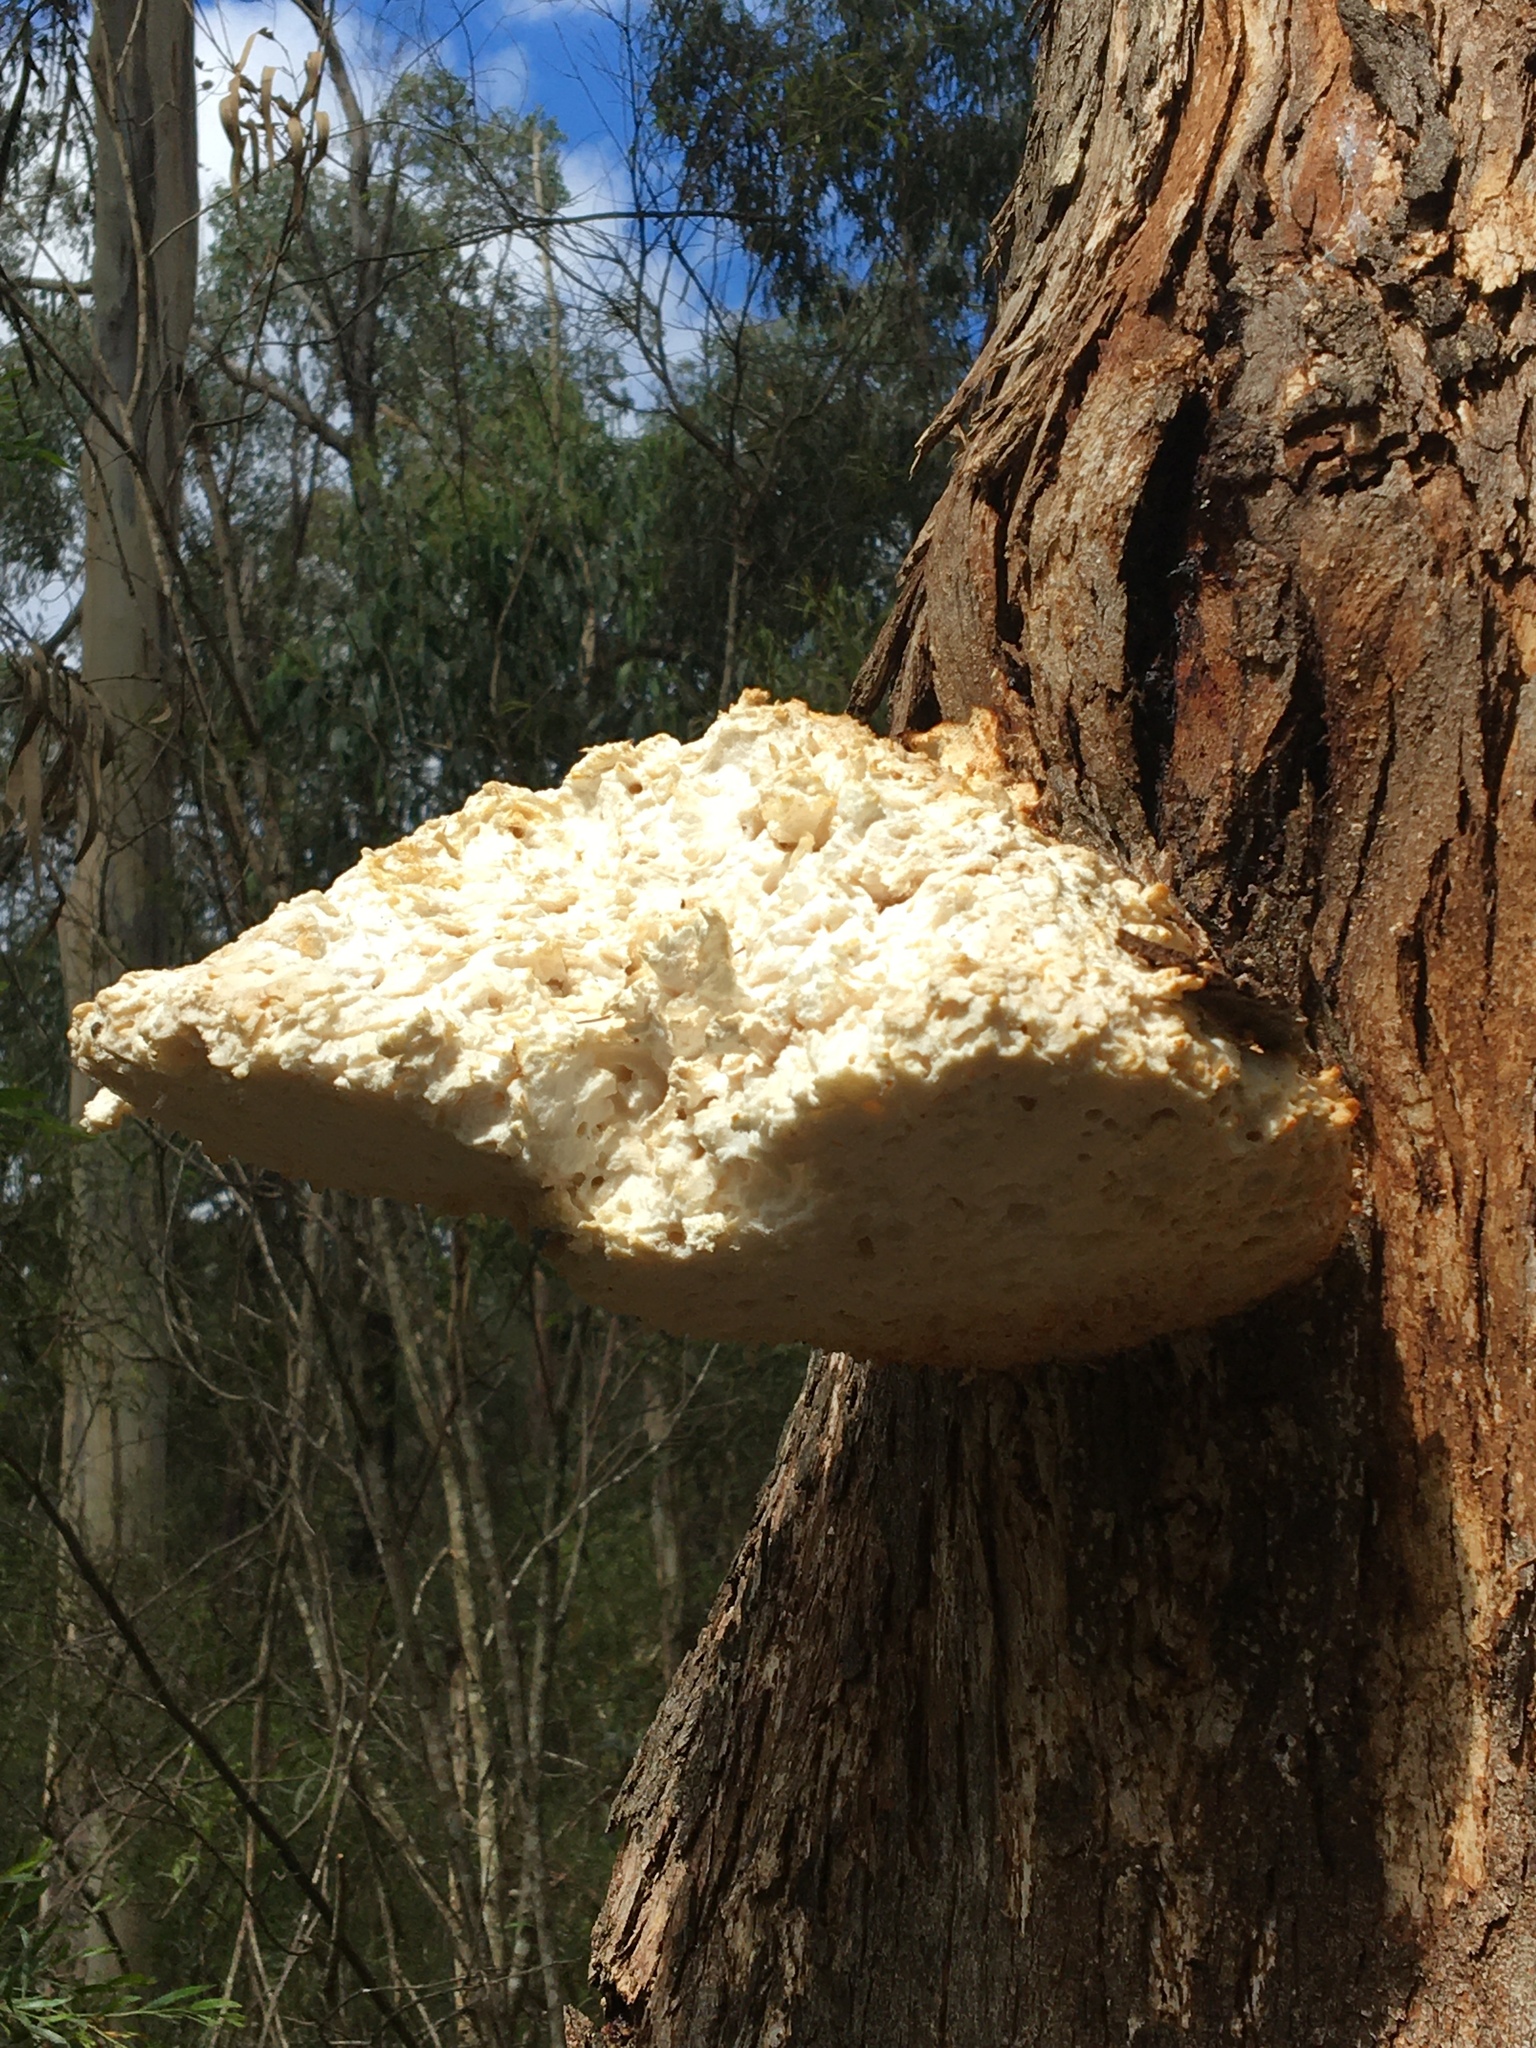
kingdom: Fungi
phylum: Basidiomycota
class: Agaricomycetes
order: Polyporales
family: Laetiporaceae
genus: Laetiporus
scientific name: Laetiporus portentosus
